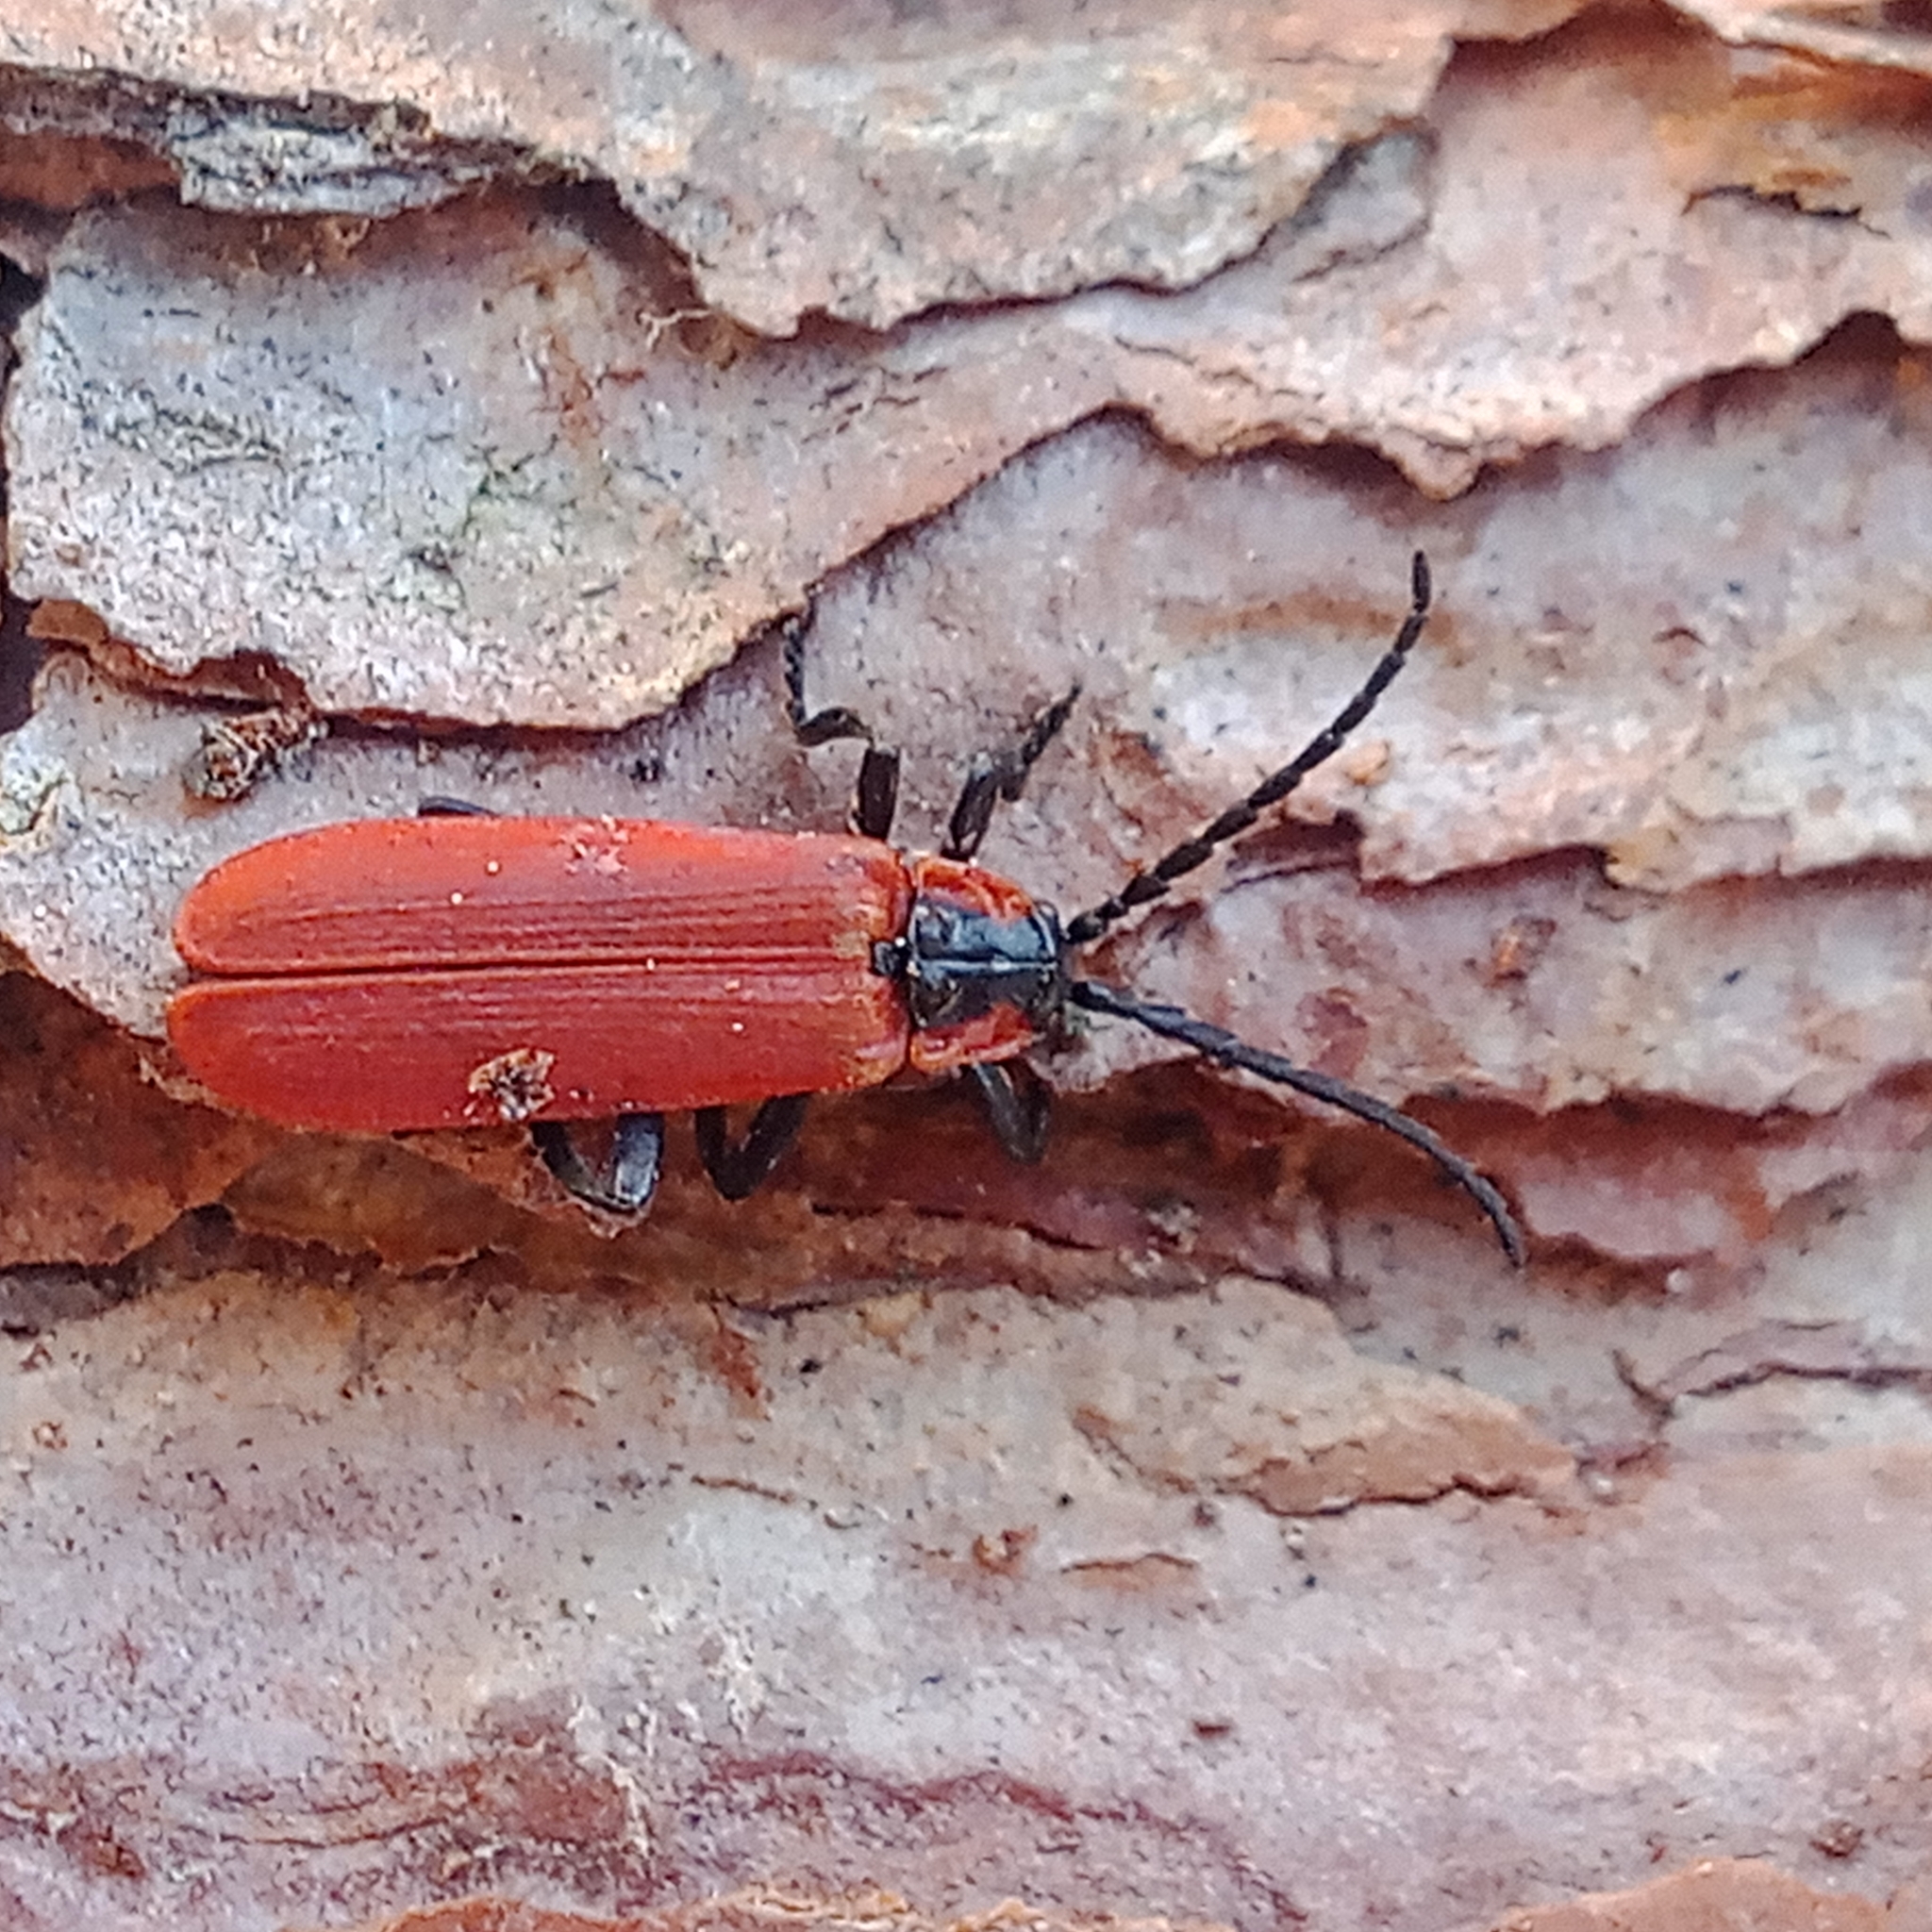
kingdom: Animalia
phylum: Arthropoda
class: Insecta
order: Coleoptera
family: Lycidae
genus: Lygistopterus
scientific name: Lygistopterus sanguineus
